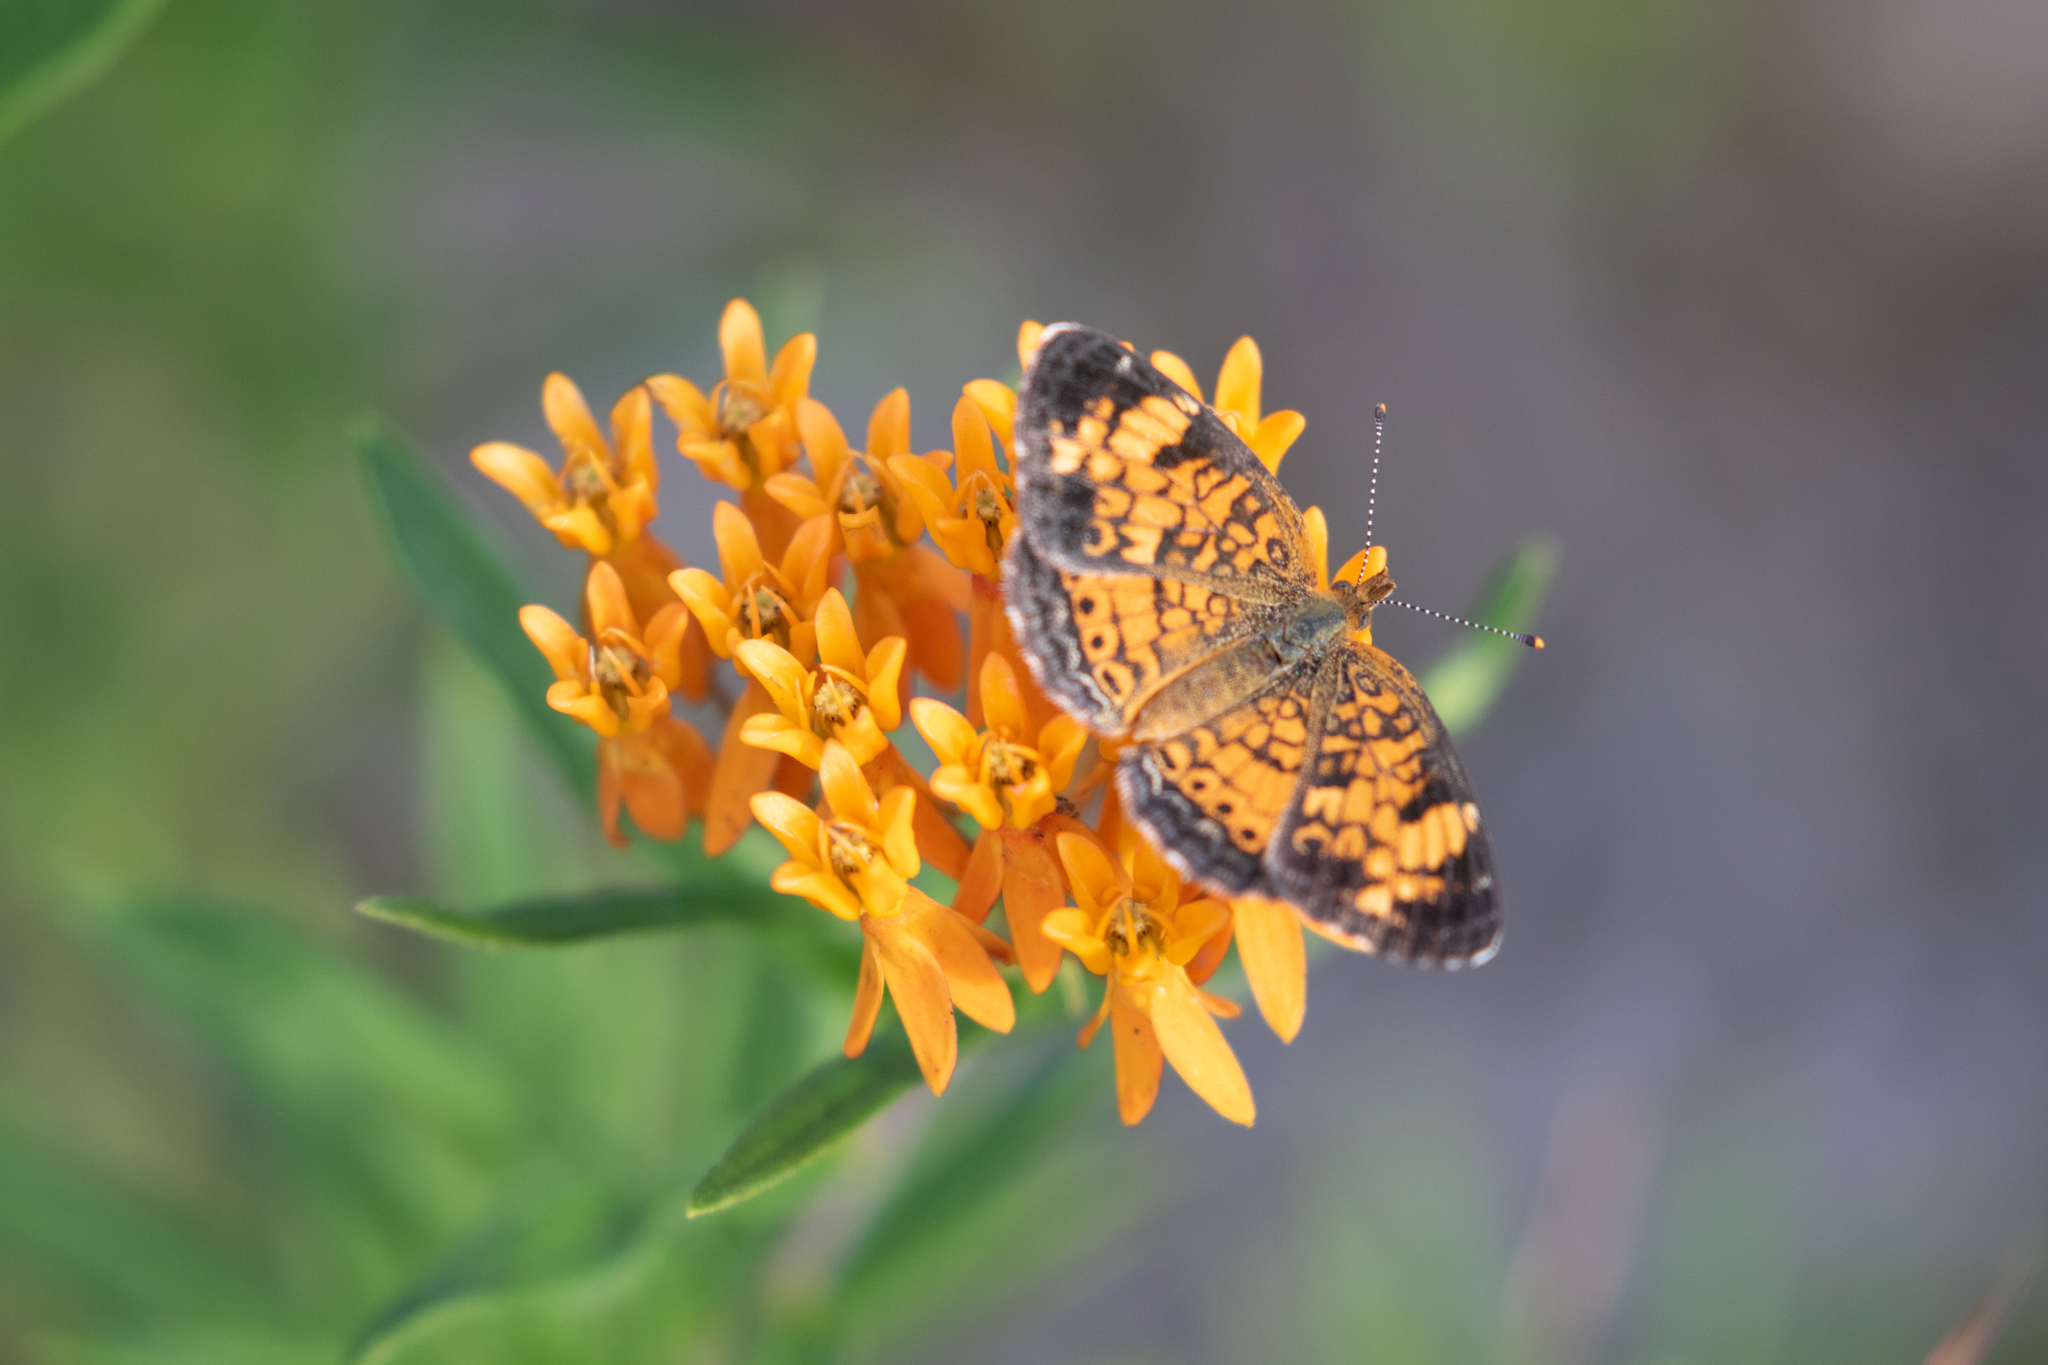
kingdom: Animalia
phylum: Arthropoda
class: Insecta
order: Lepidoptera
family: Nymphalidae
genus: Phyciodes
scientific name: Phyciodes tharos
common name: Pearl crescent
